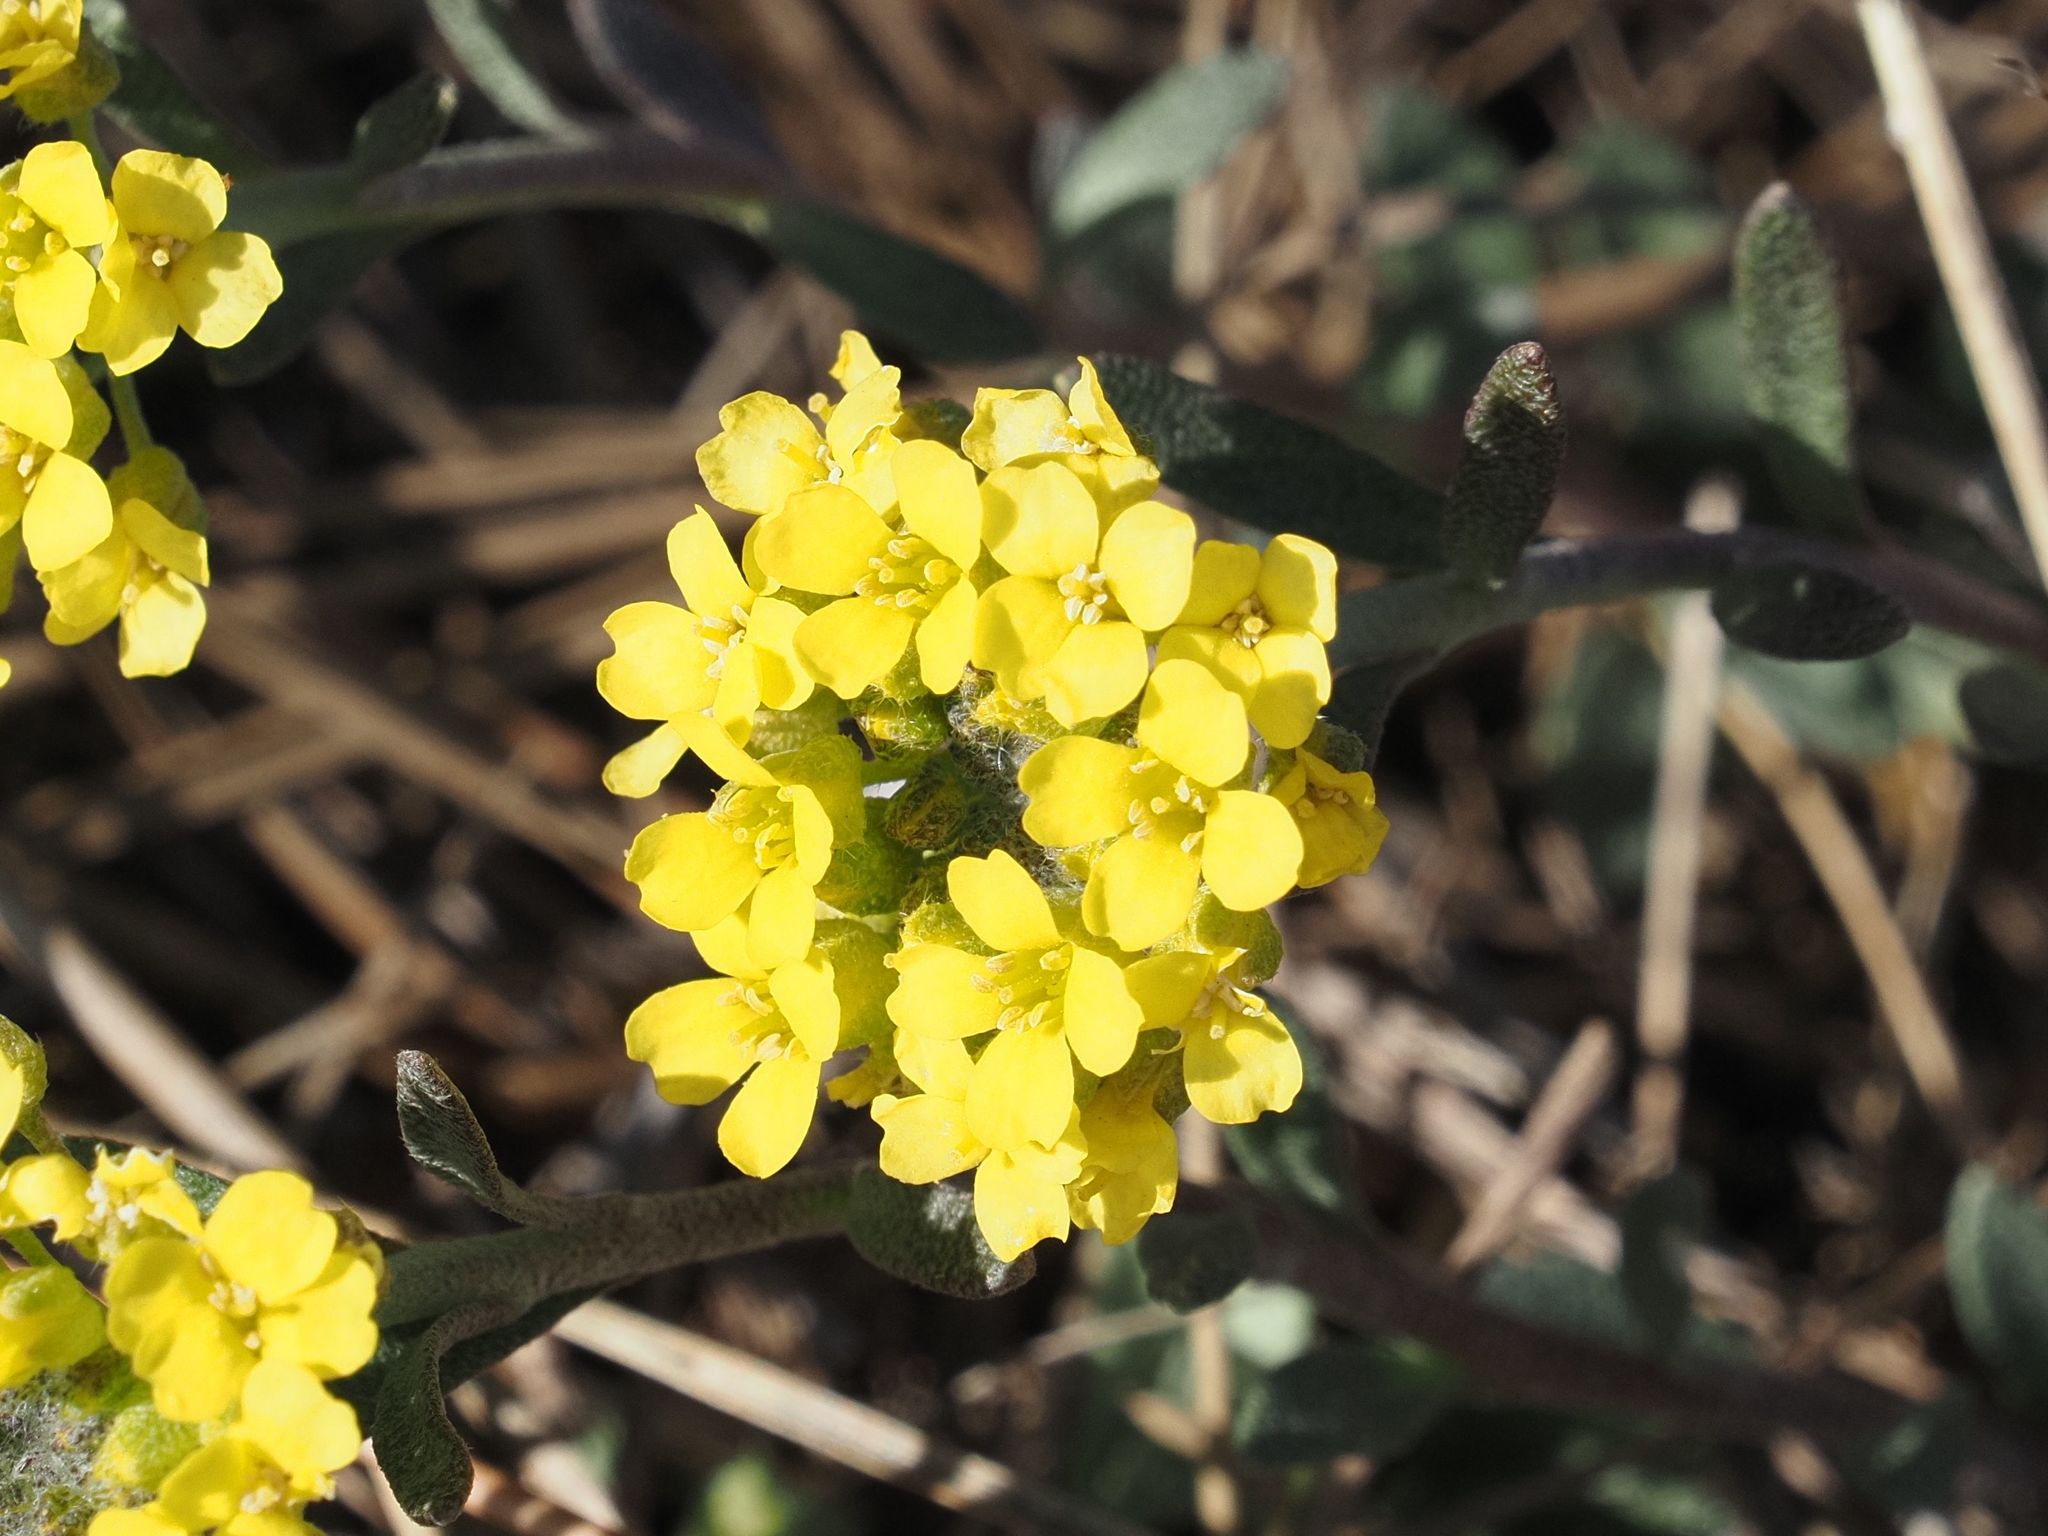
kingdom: Plantae
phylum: Tracheophyta
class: Magnoliopsida
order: Brassicales
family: Brassicaceae
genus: Alyssum
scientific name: Alyssum gmelinii
